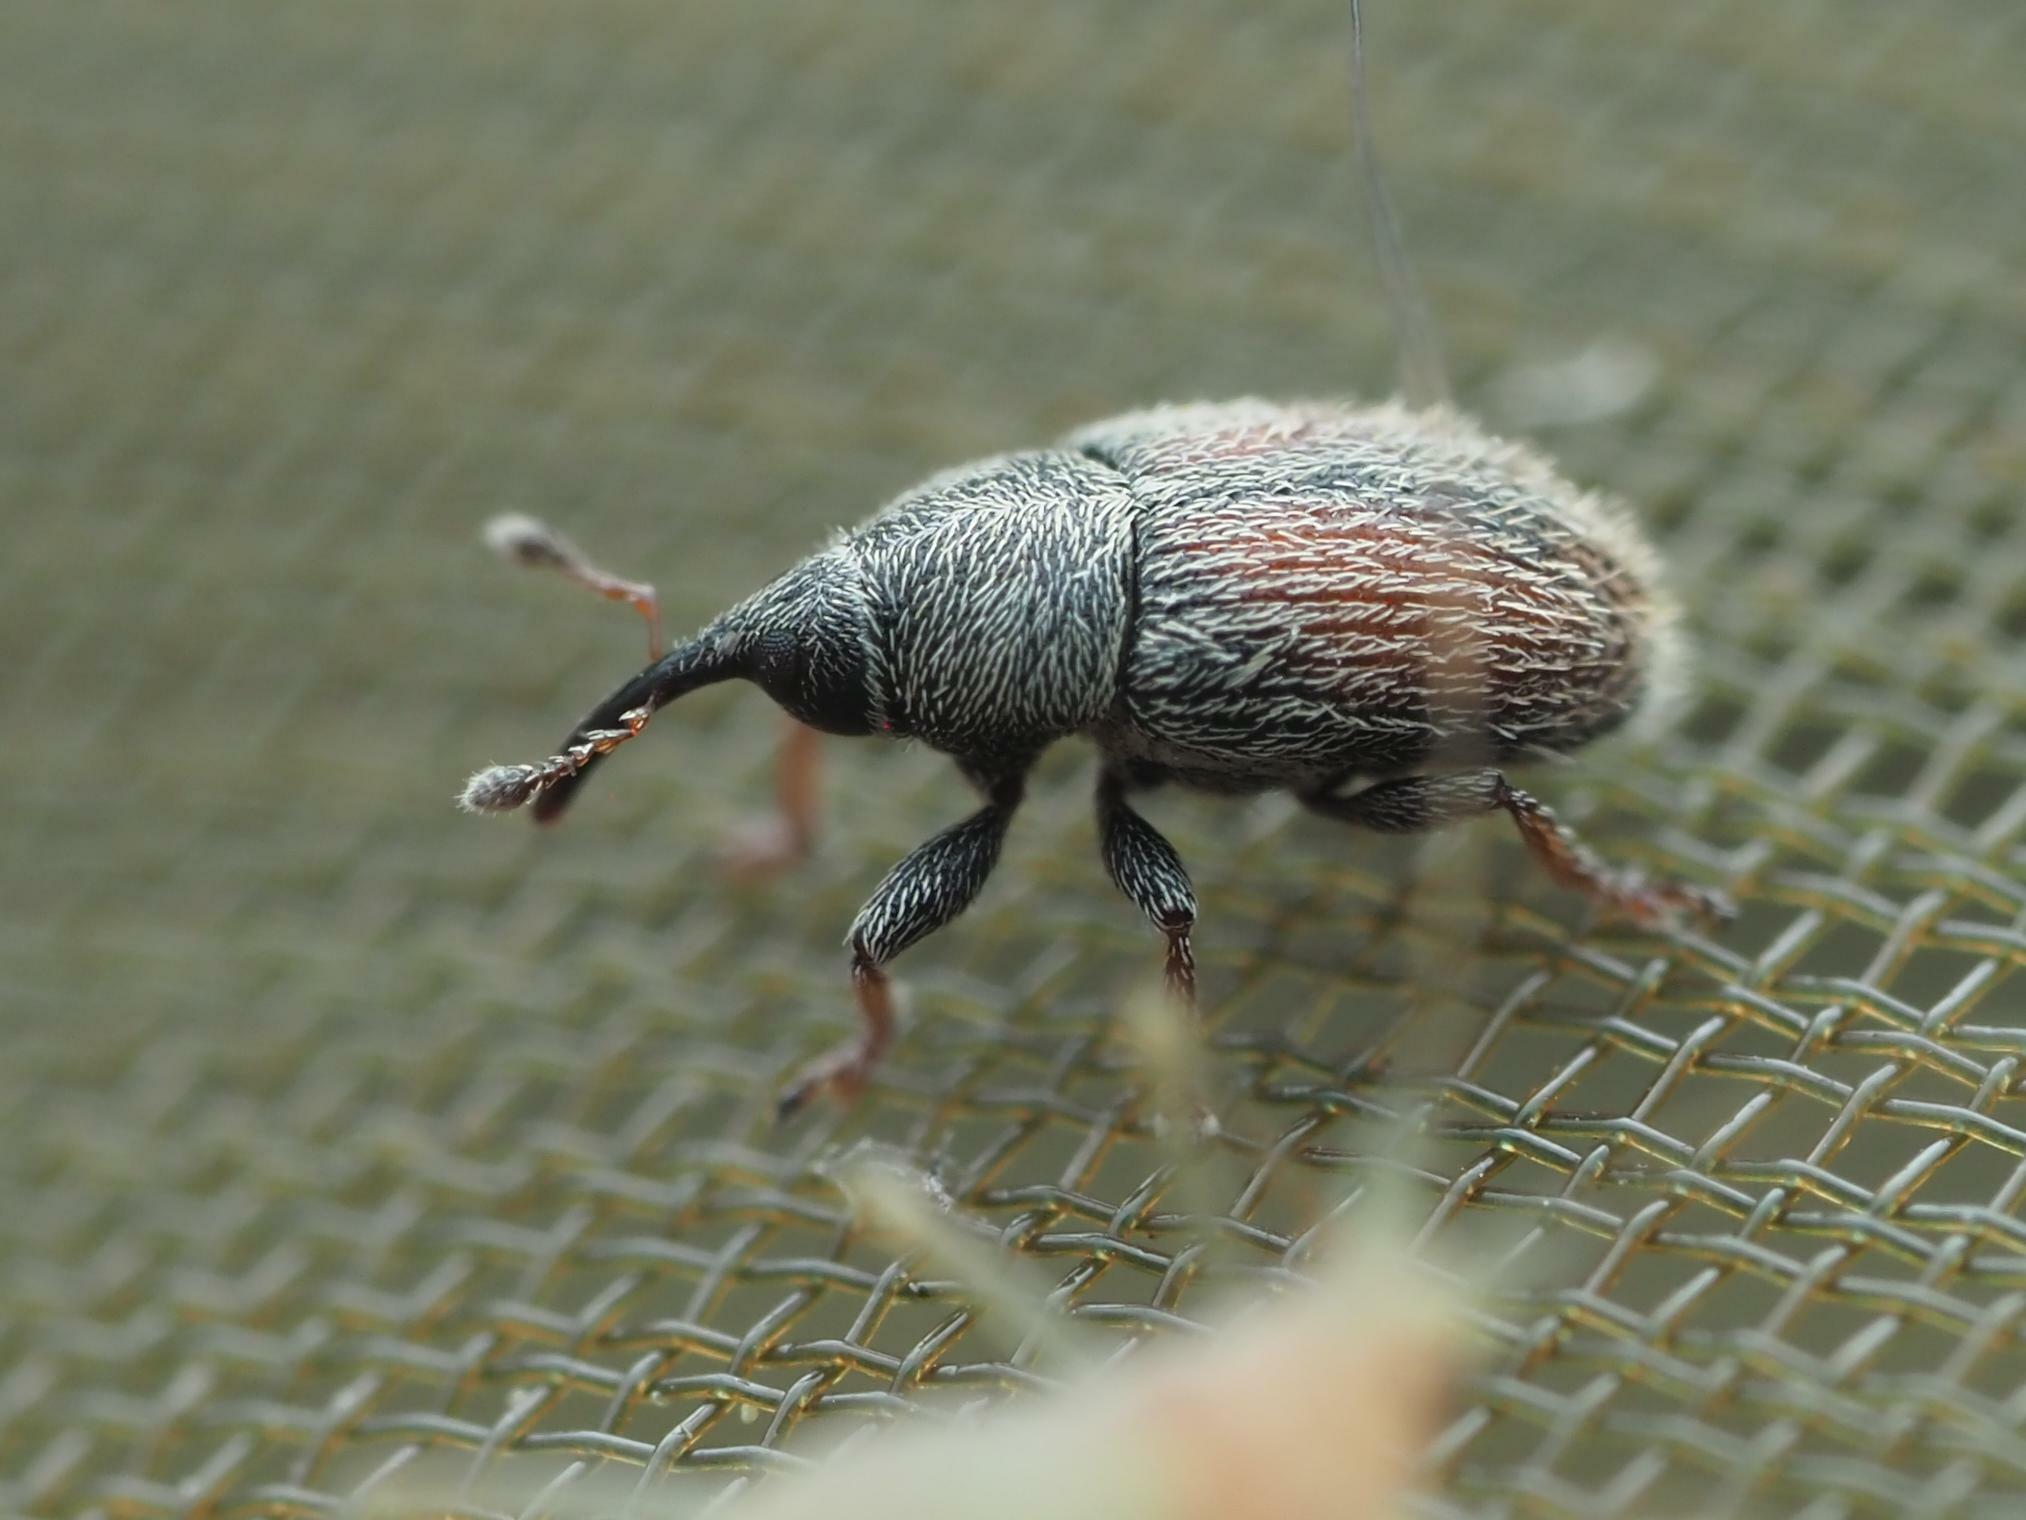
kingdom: Animalia
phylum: Arthropoda
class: Insecta
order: Coleoptera
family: Curculionidae
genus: Mecinus
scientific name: Mecinus pascuorum
